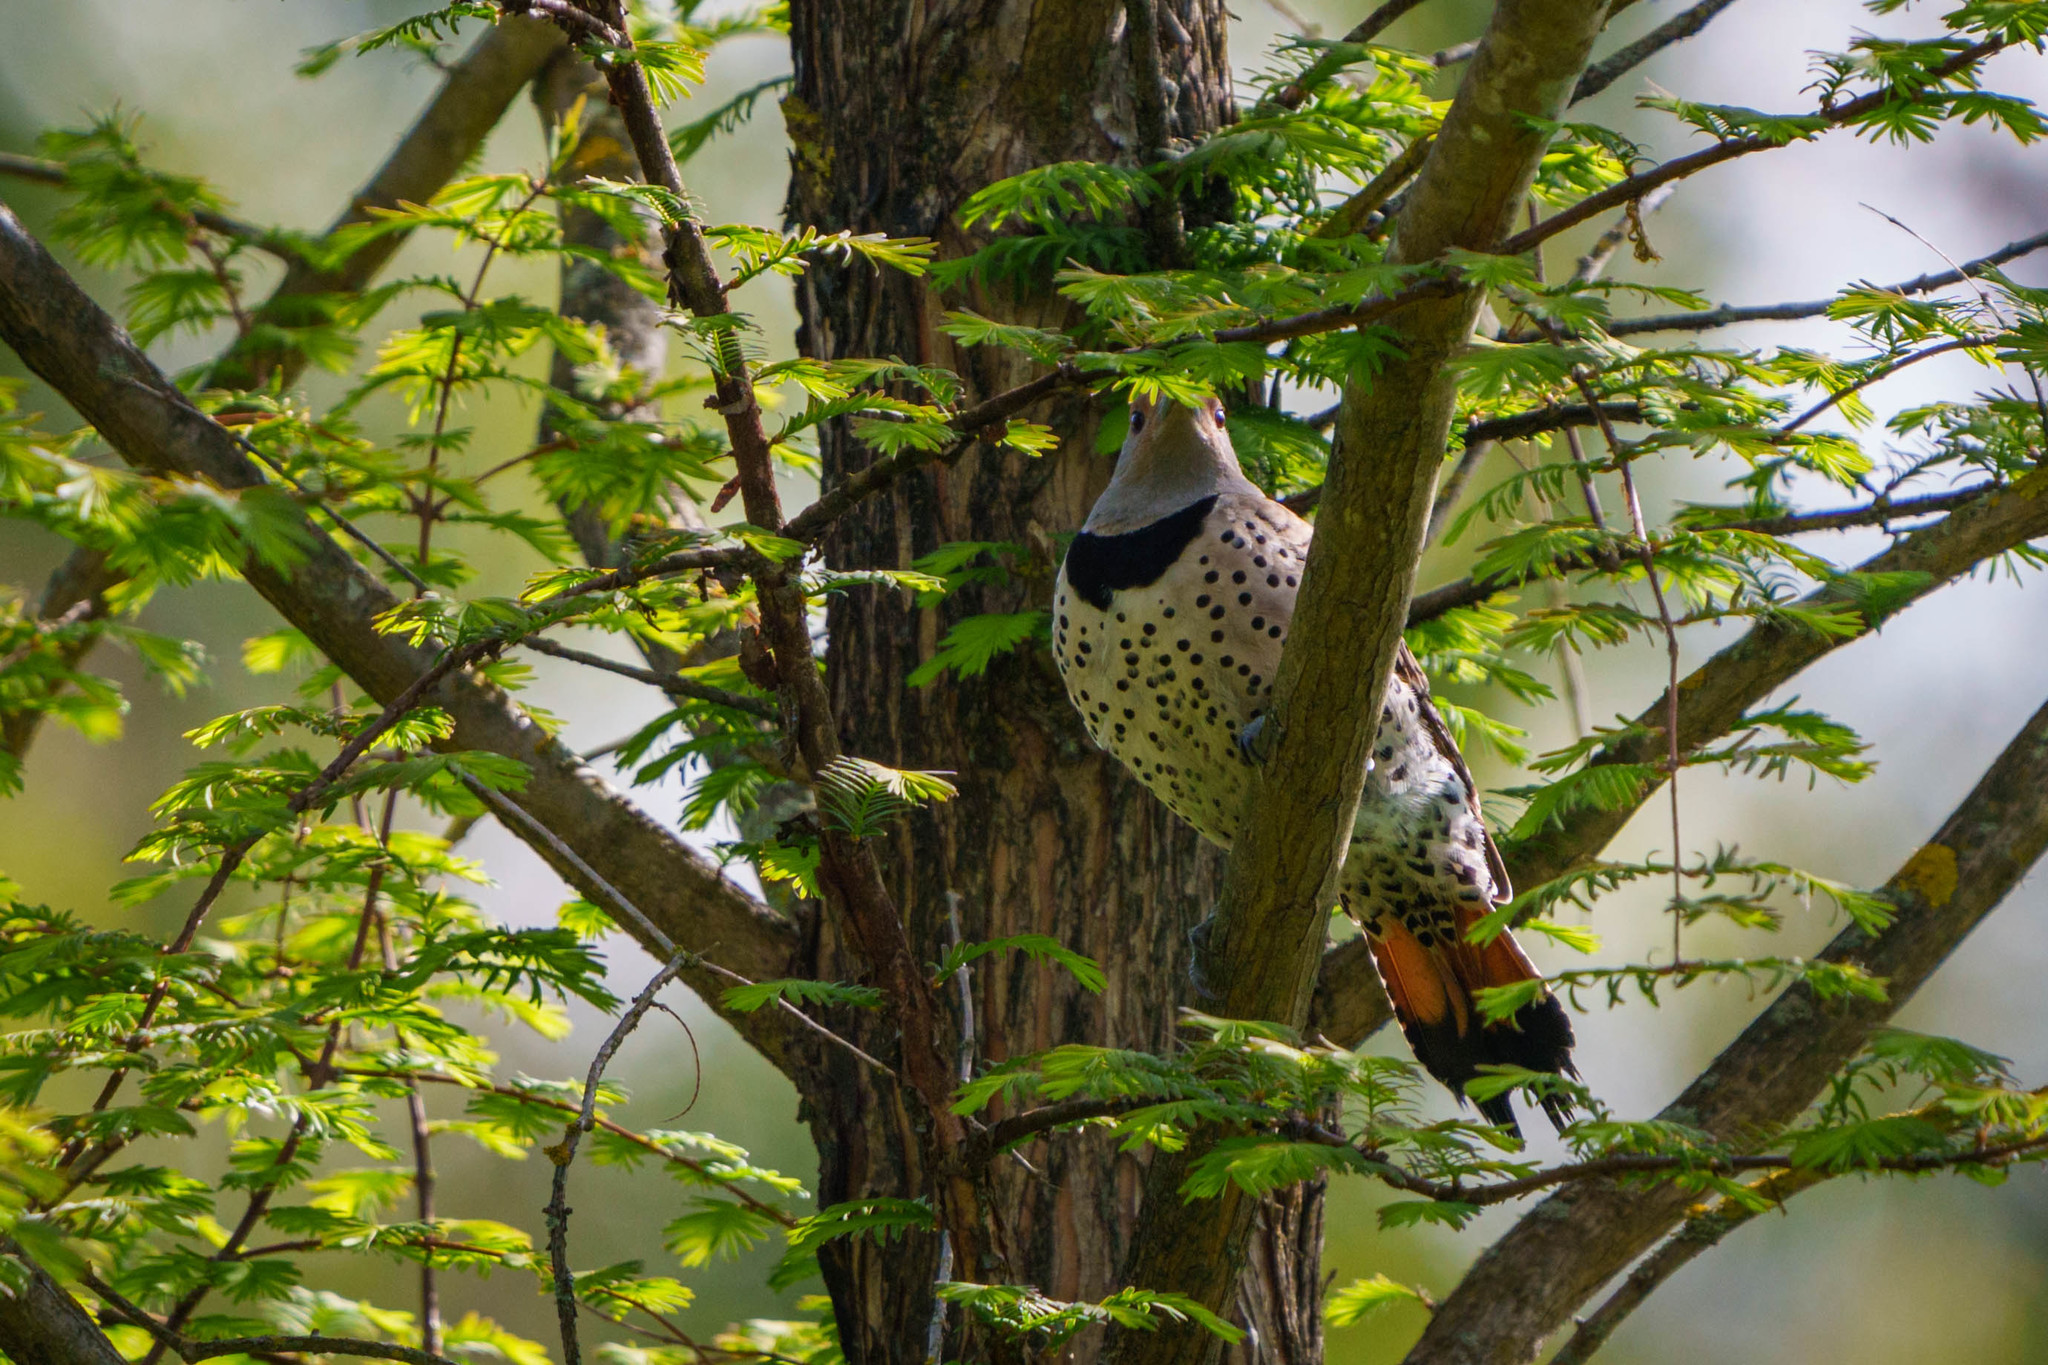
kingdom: Animalia
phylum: Chordata
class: Aves
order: Piciformes
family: Picidae
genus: Colaptes
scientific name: Colaptes auratus
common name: Northern flicker
